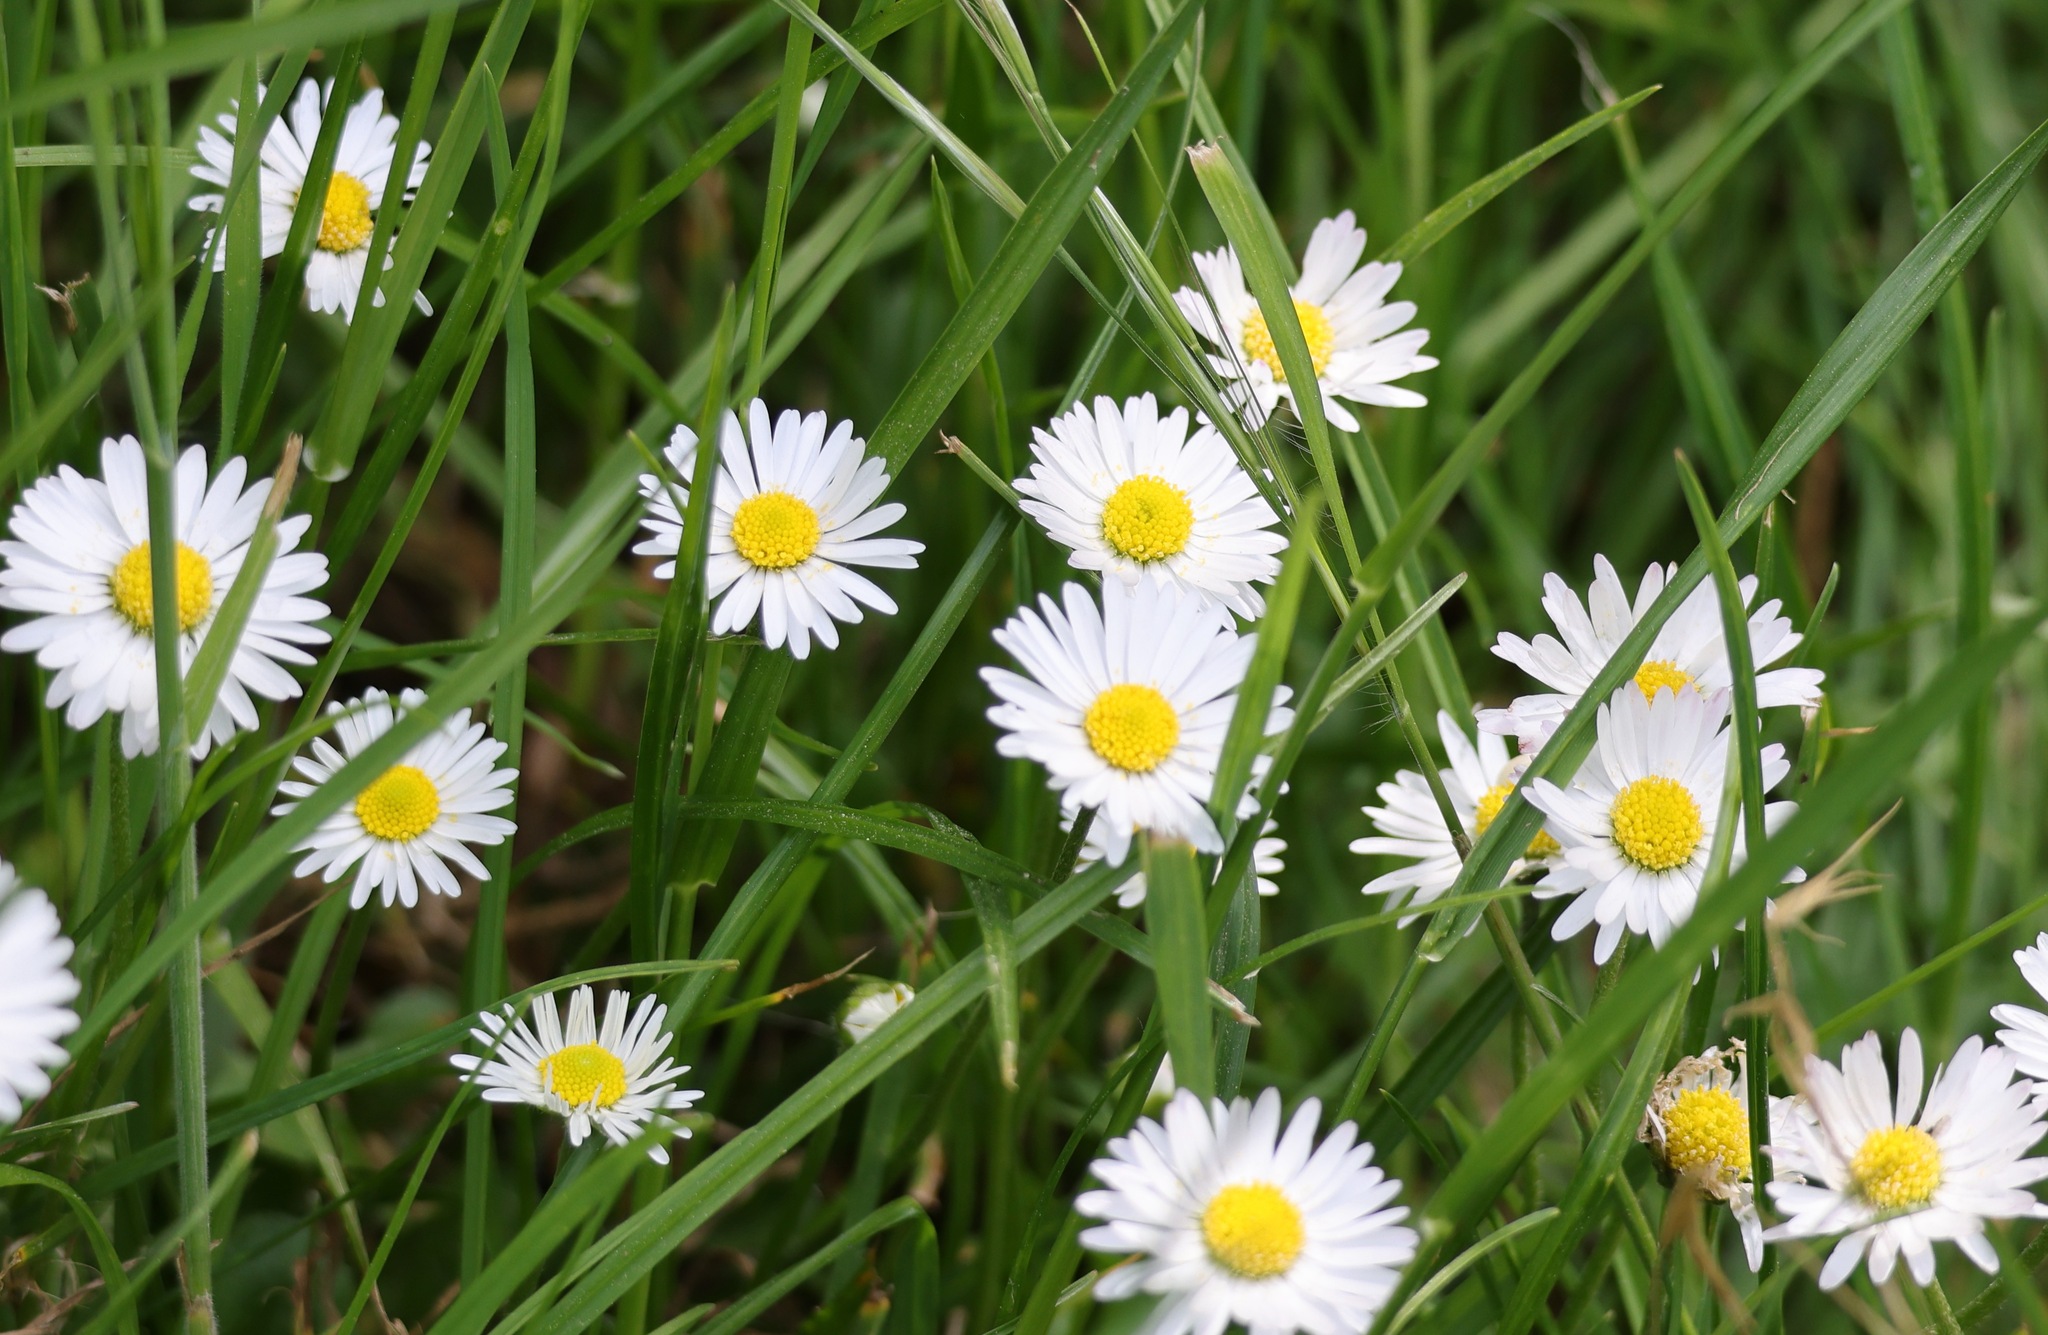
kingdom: Plantae
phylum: Tracheophyta
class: Magnoliopsida
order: Asterales
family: Asteraceae
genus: Bellis
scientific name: Bellis perennis
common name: Lawndaisy
